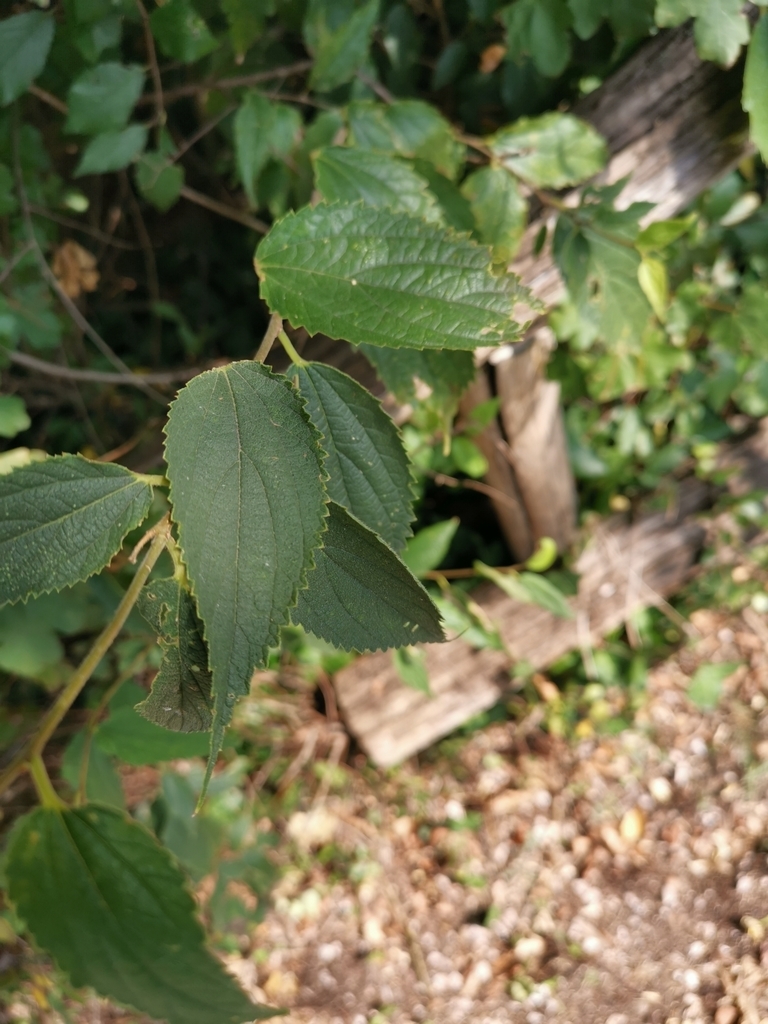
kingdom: Plantae
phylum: Tracheophyta
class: Magnoliopsida
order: Rosales
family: Cannabaceae
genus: Celtis
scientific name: Celtis australis
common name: European hackberry
